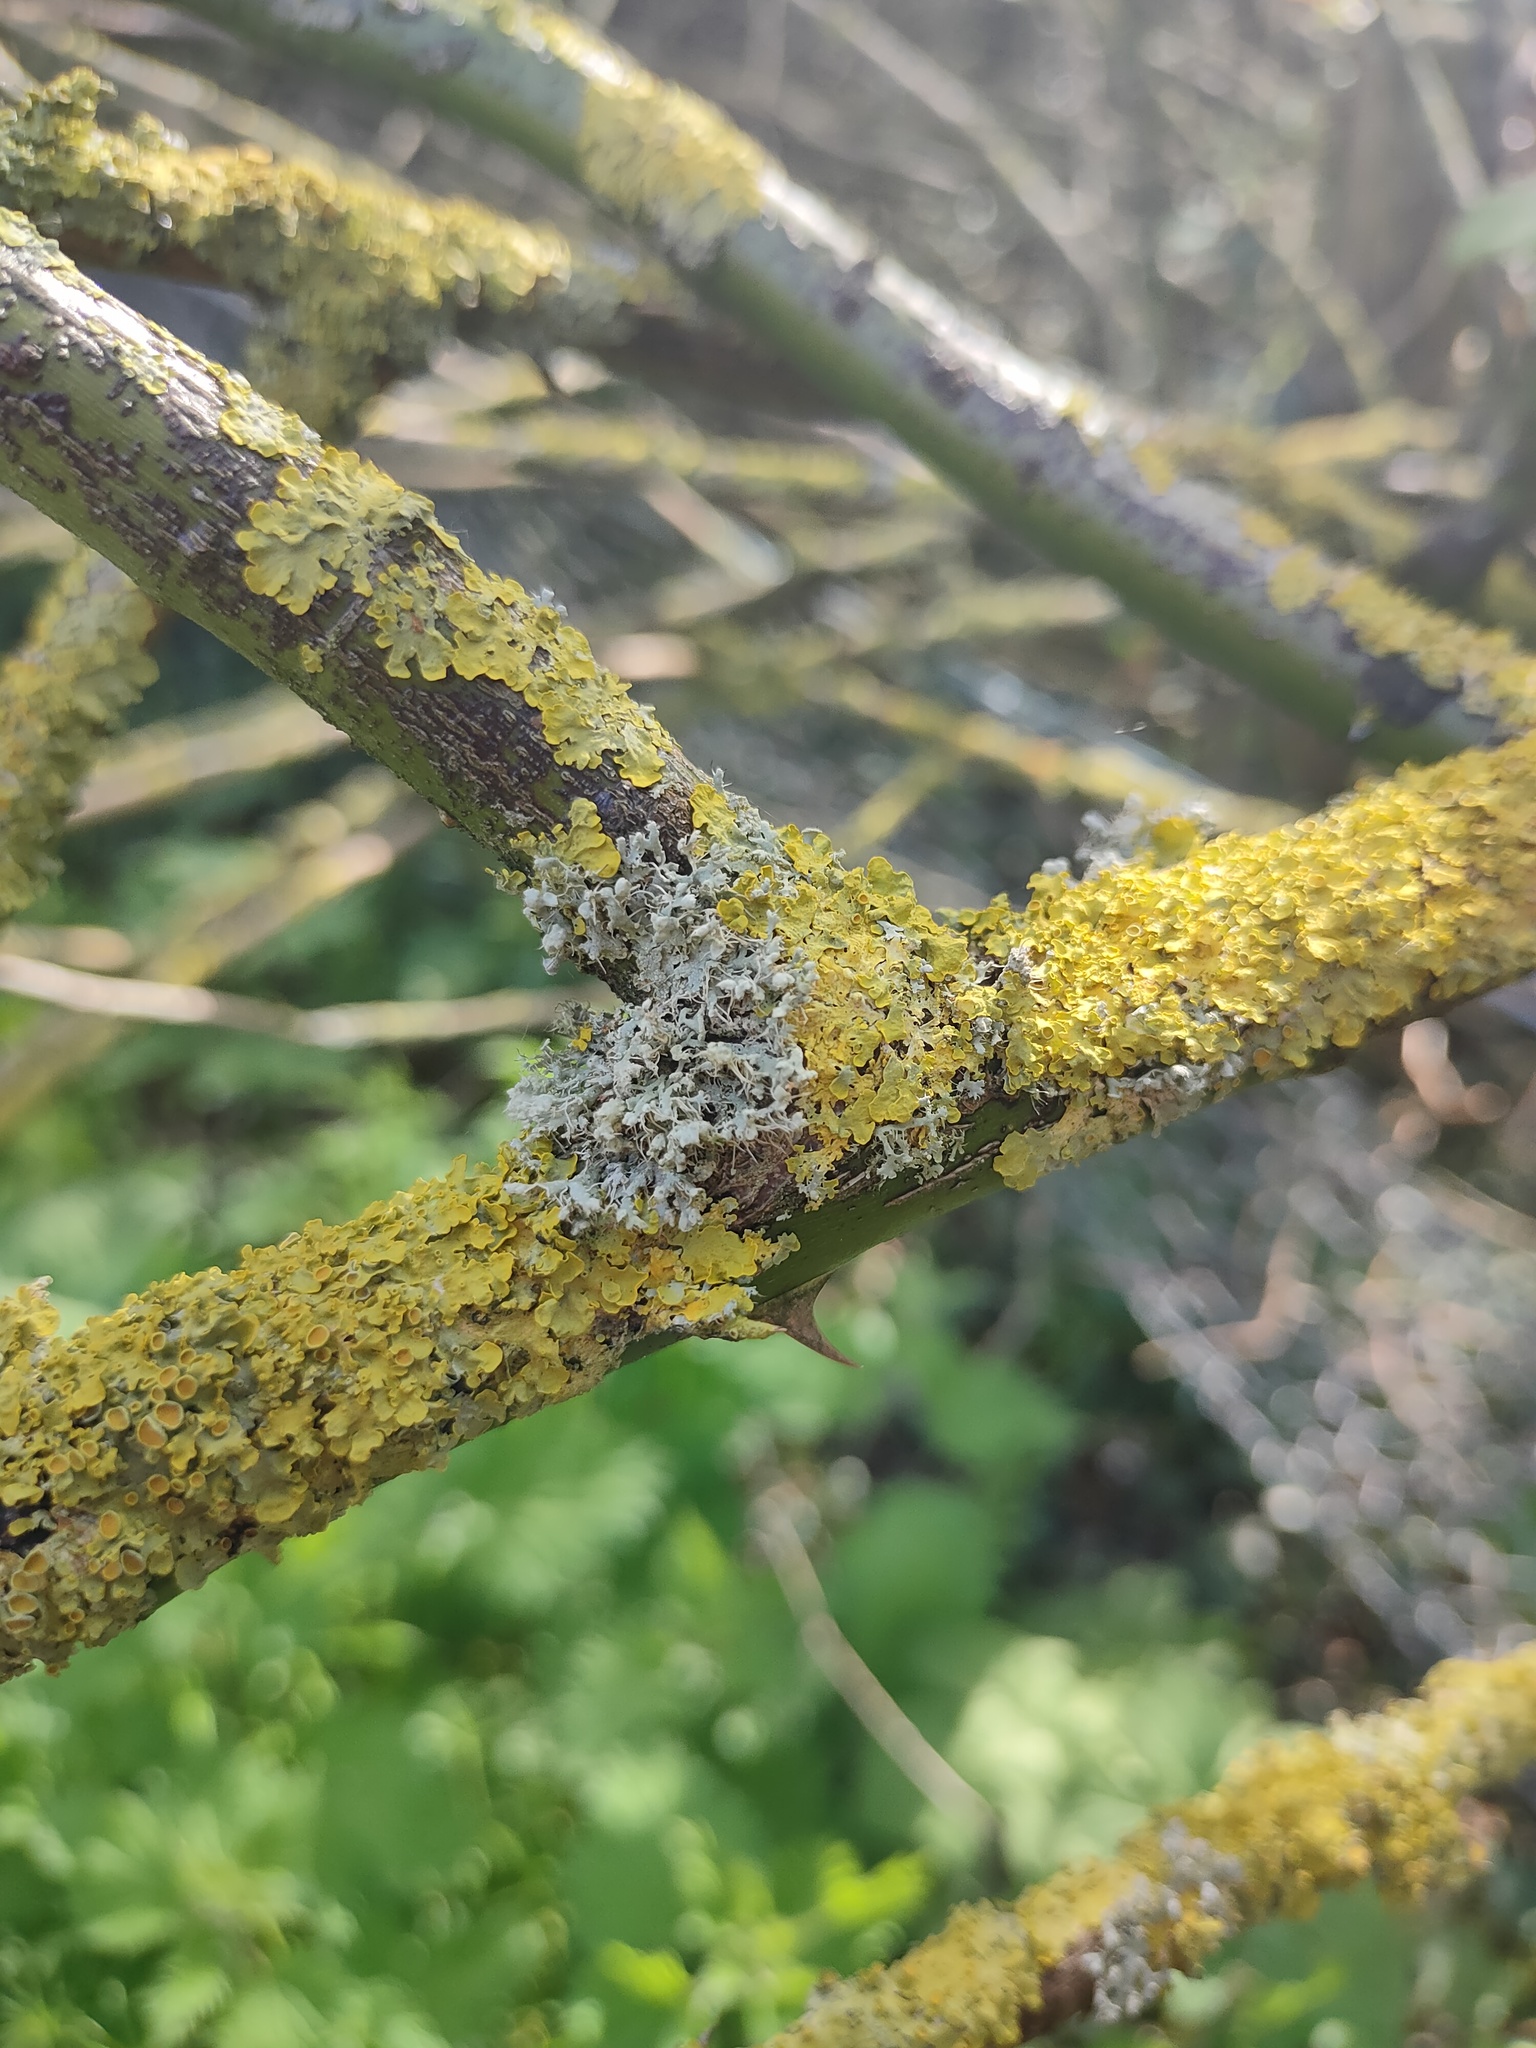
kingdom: Fungi
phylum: Ascomycota
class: Lecanoromycetes
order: Caliciales
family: Physciaceae
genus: Physcia
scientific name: Physcia adscendens
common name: Hooded rosette lichen
